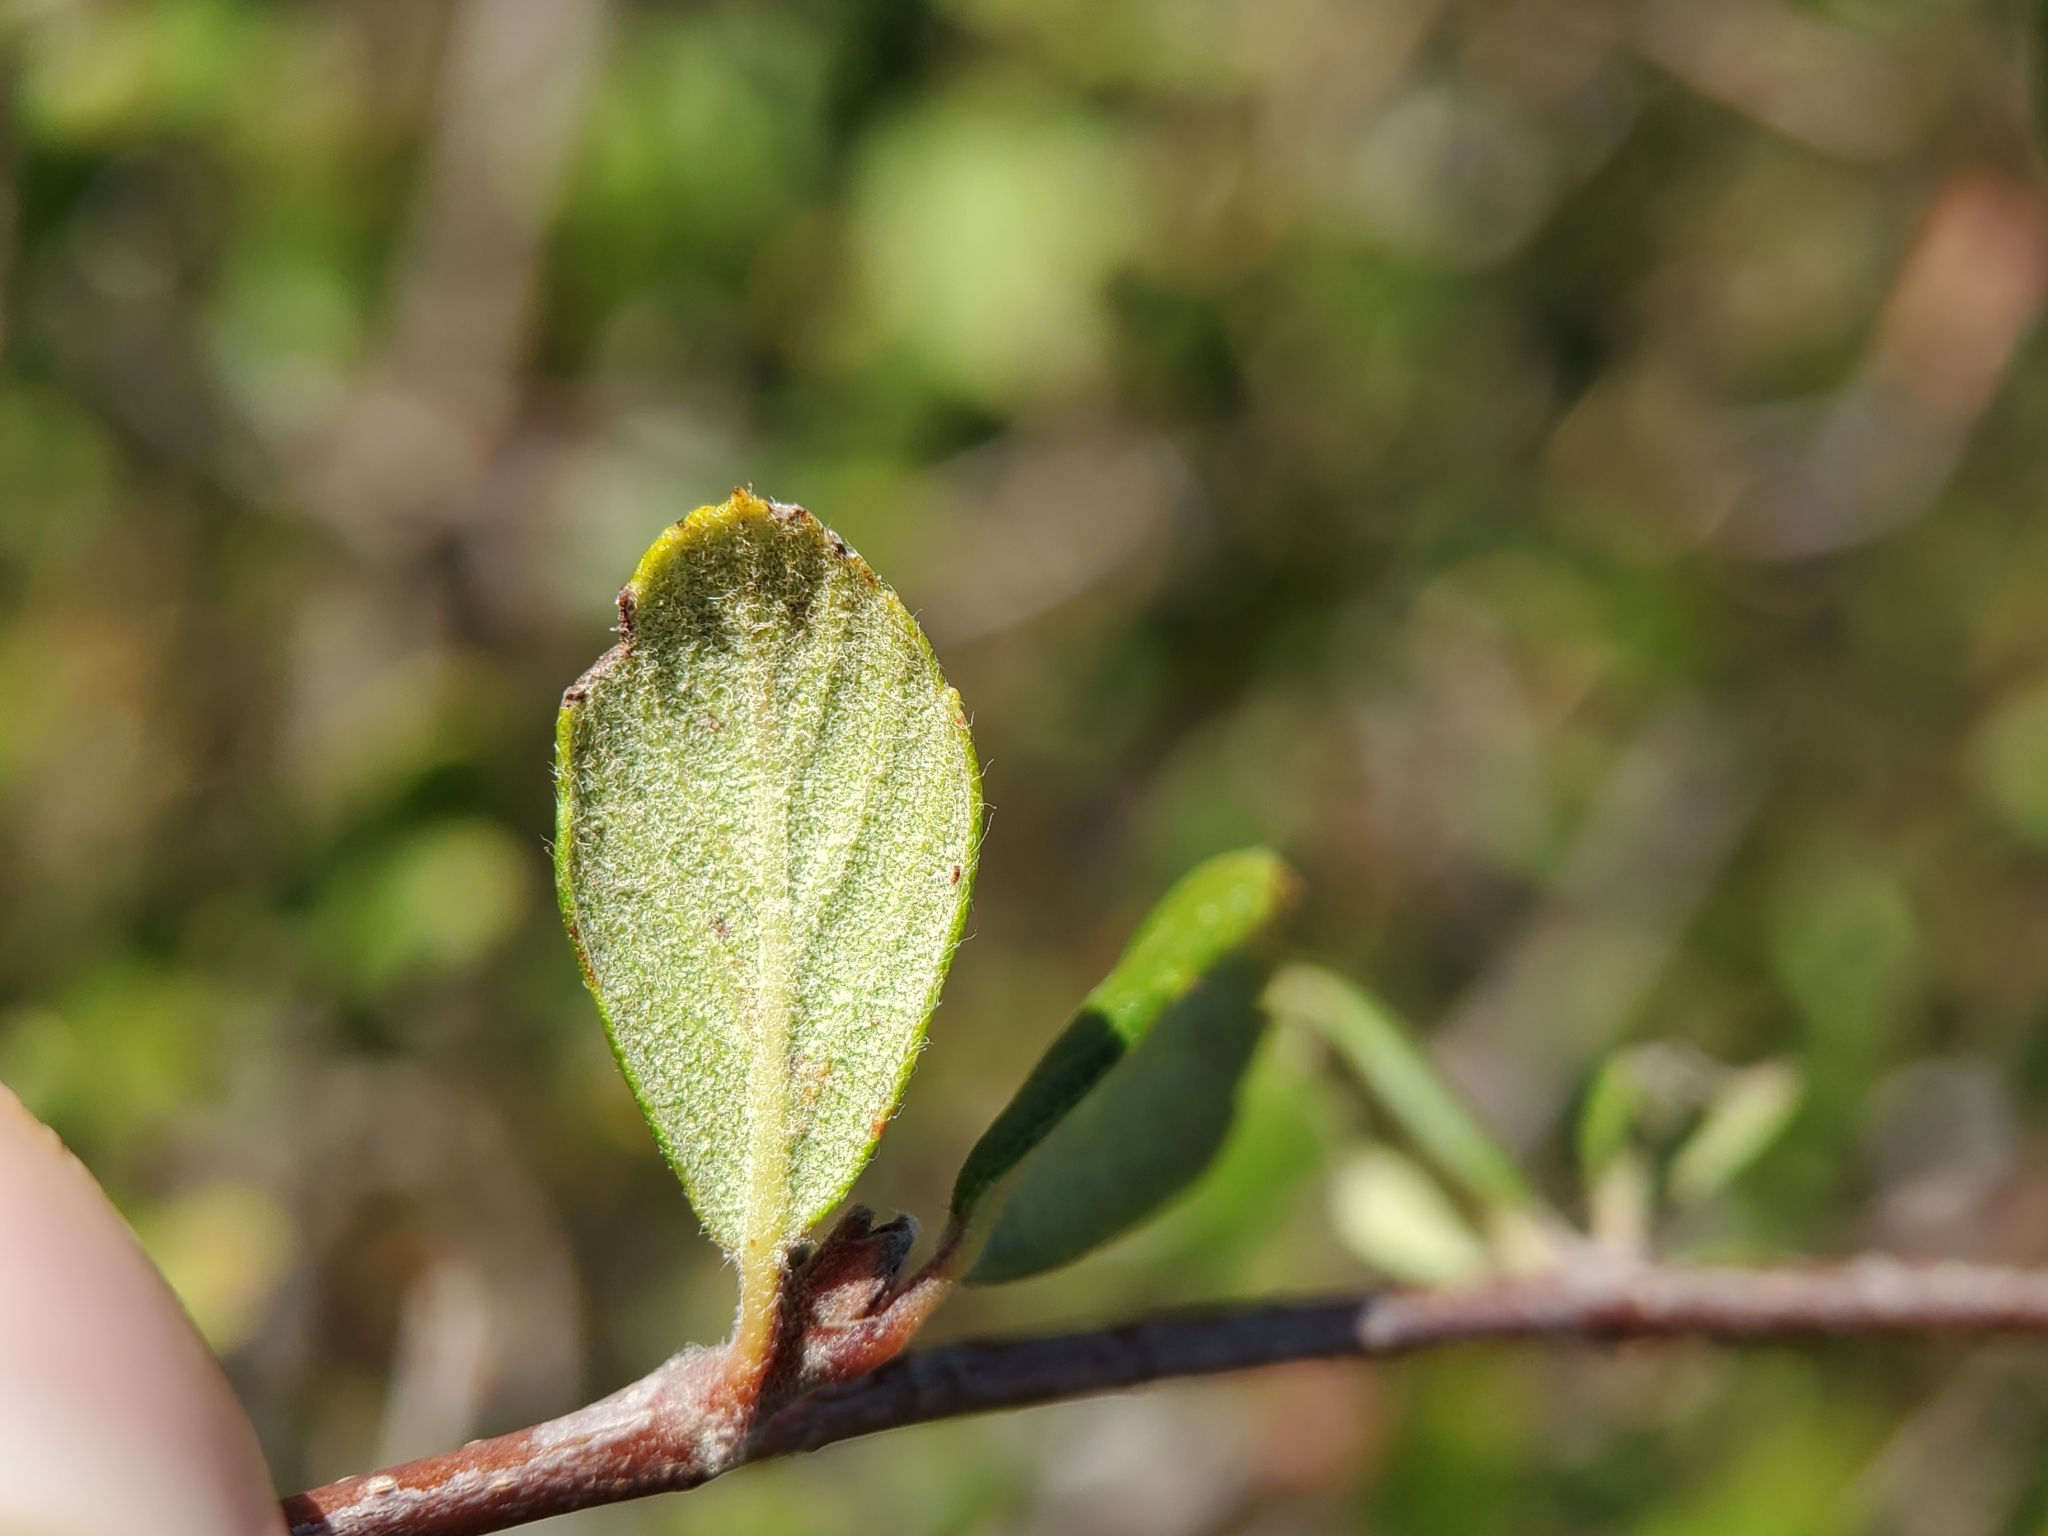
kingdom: Plantae
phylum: Tracheophyta
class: Magnoliopsida
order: Rosales
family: Rosaceae
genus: Cercocarpus
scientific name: Cercocarpus betuloides
